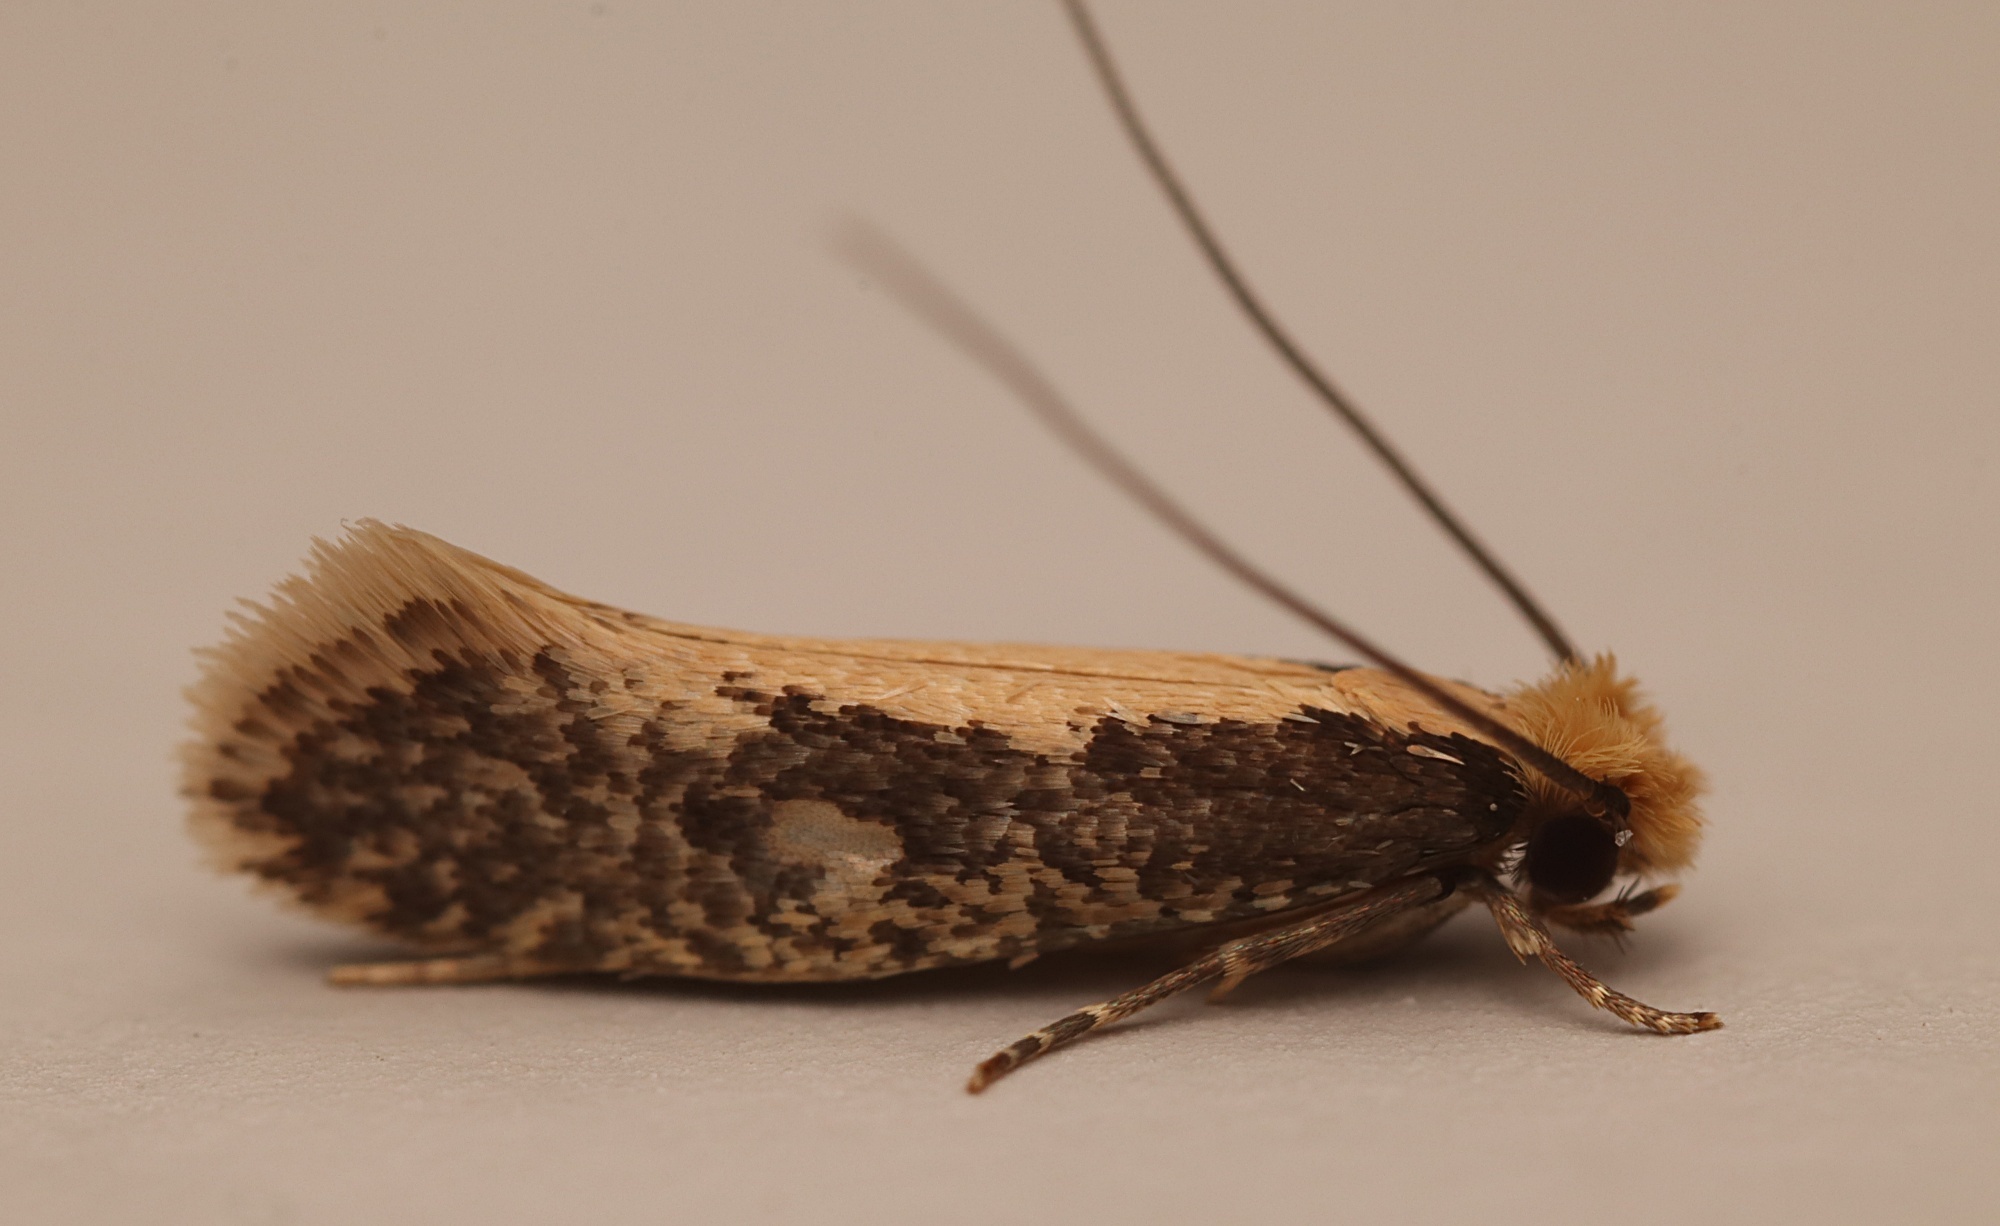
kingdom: Animalia
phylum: Arthropoda
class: Insecta
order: Lepidoptera
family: Tineidae
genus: Monopis
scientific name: Monopis crocicapitella
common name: Moth
